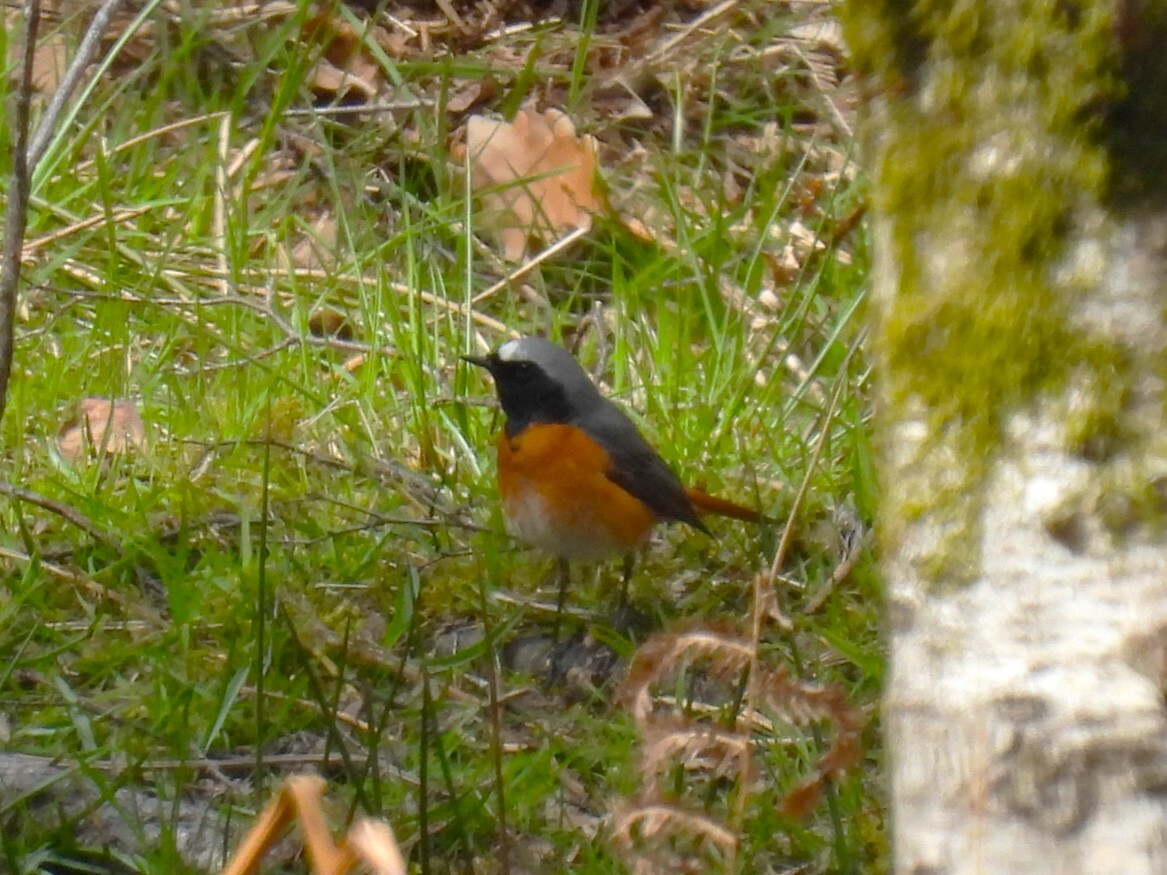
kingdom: Animalia
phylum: Chordata
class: Aves
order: Passeriformes
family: Muscicapidae
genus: Phoenicurus
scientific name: Phoenicurus phoenicurus
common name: Common redstart
